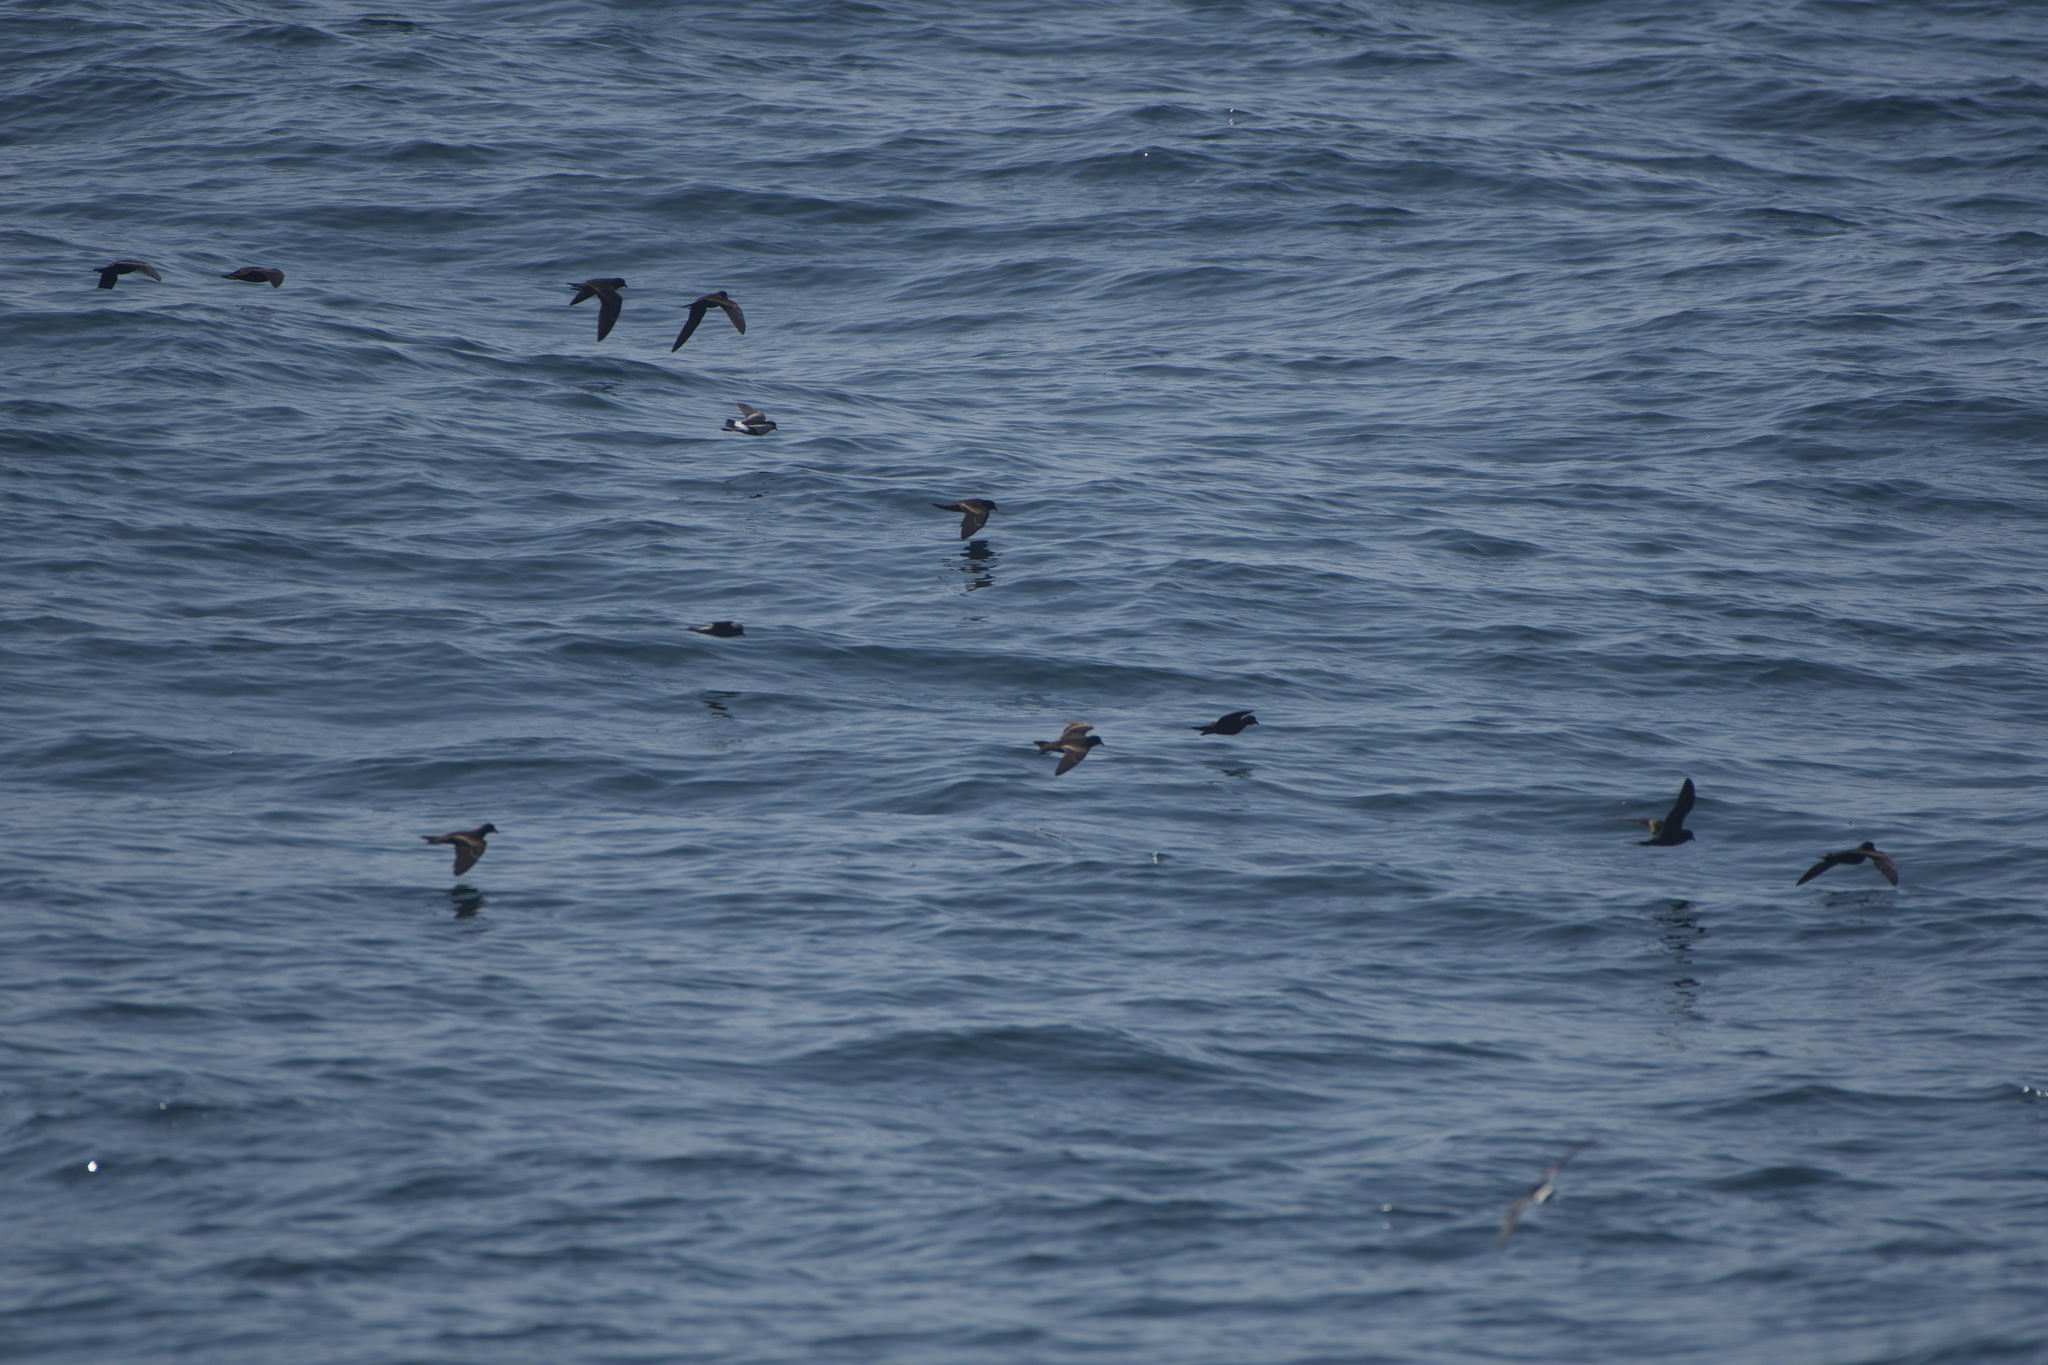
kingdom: Animalia
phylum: Chordata
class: Aves
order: Procellariiformes
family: Hydrobatidae
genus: Oceanites
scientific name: Oceanites oceanicus
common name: Wilson's storm petrel
